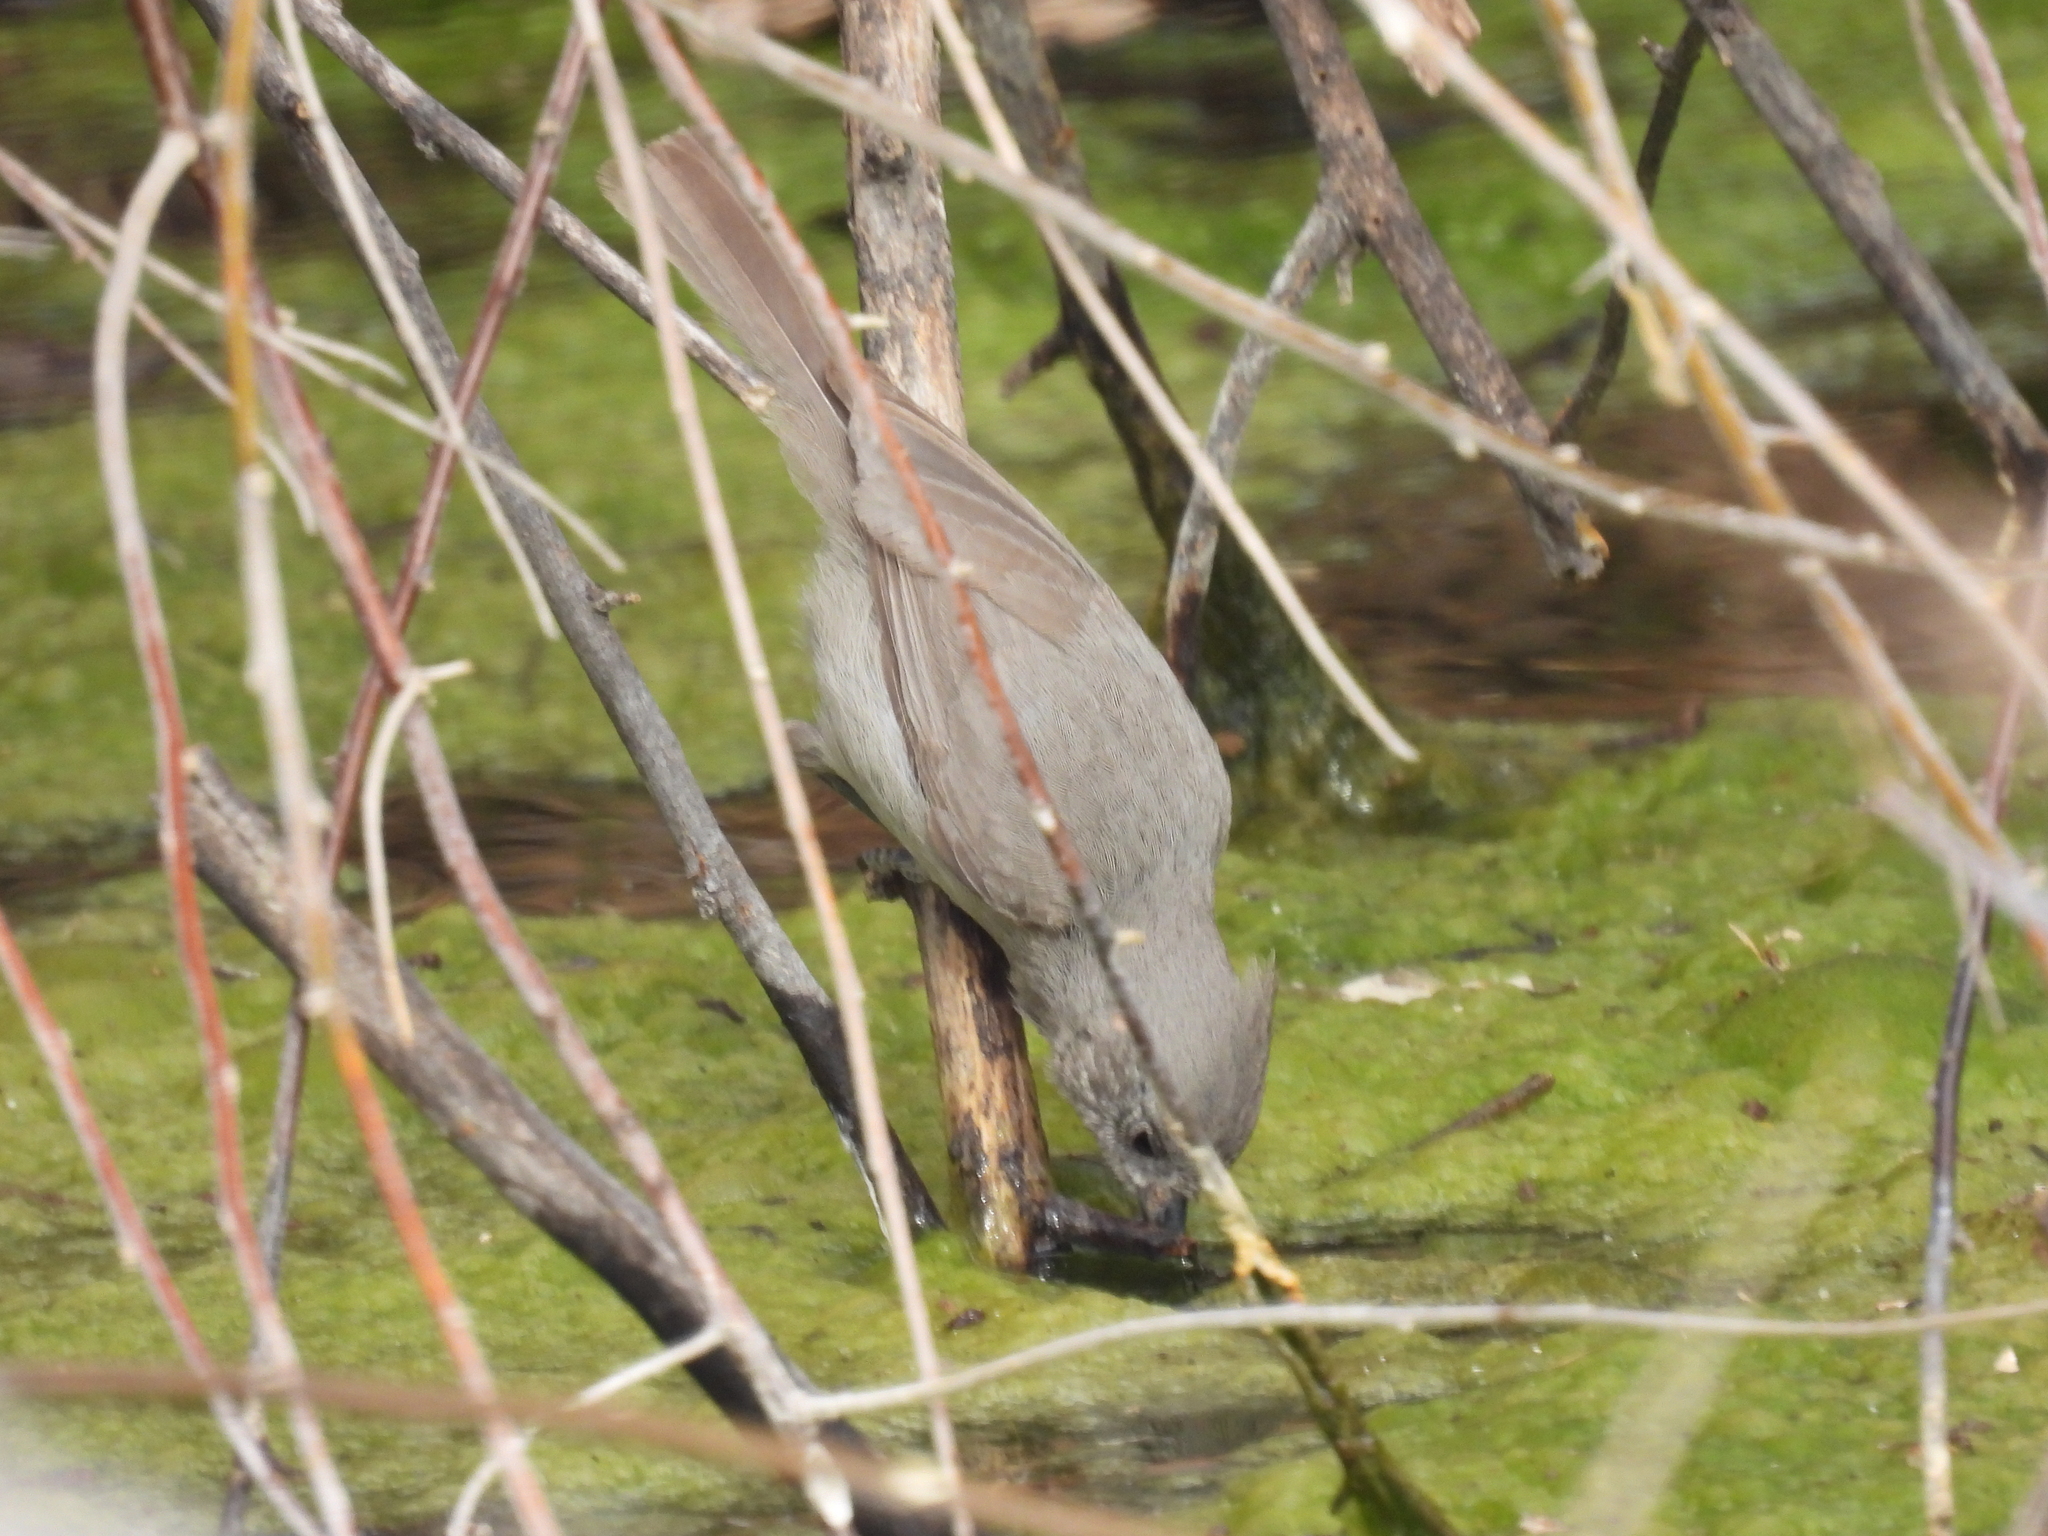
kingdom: Animalia
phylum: Chordata
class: Aves
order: Passeriformes
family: Paridae
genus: Baeolophus
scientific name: Baeolophus ridgwayi
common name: Juniper titmouse
